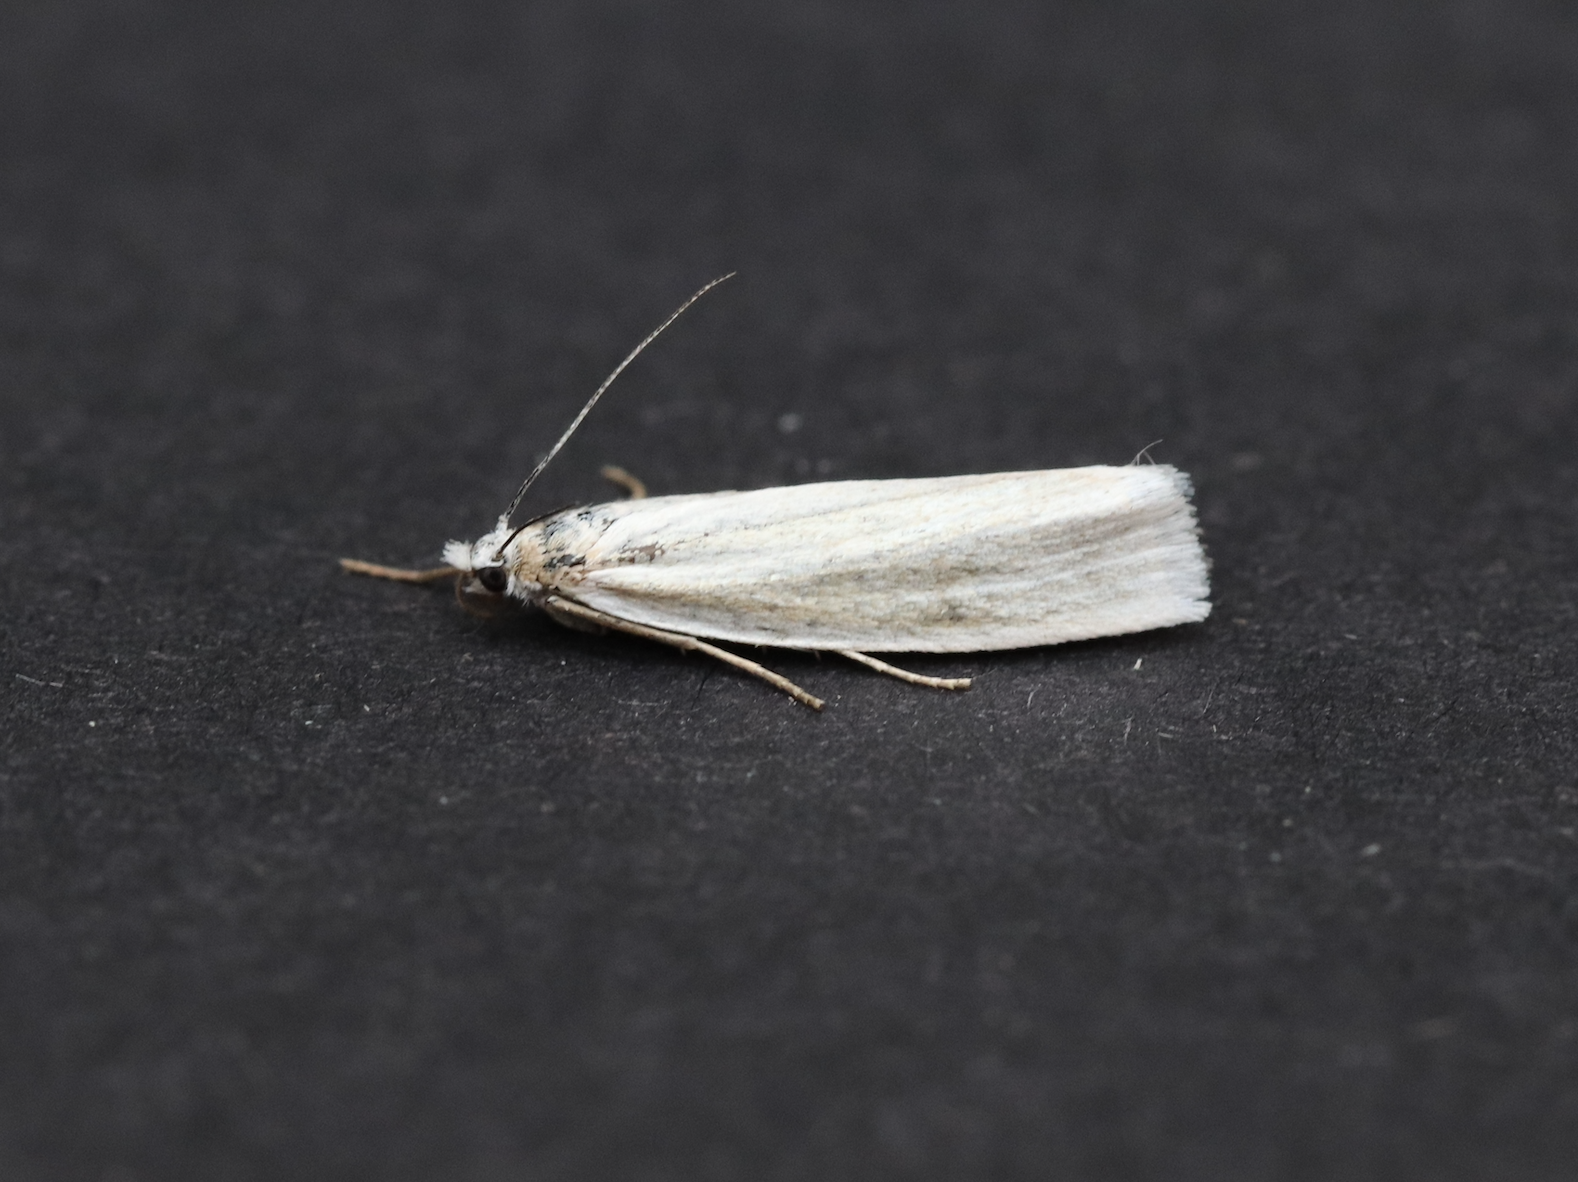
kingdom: Animalia
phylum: Arthropoda
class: Insecta
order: Lepidoptera
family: Crambidae
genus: Crambus
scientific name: Crambus perlellus
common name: Yellow satin veneer
